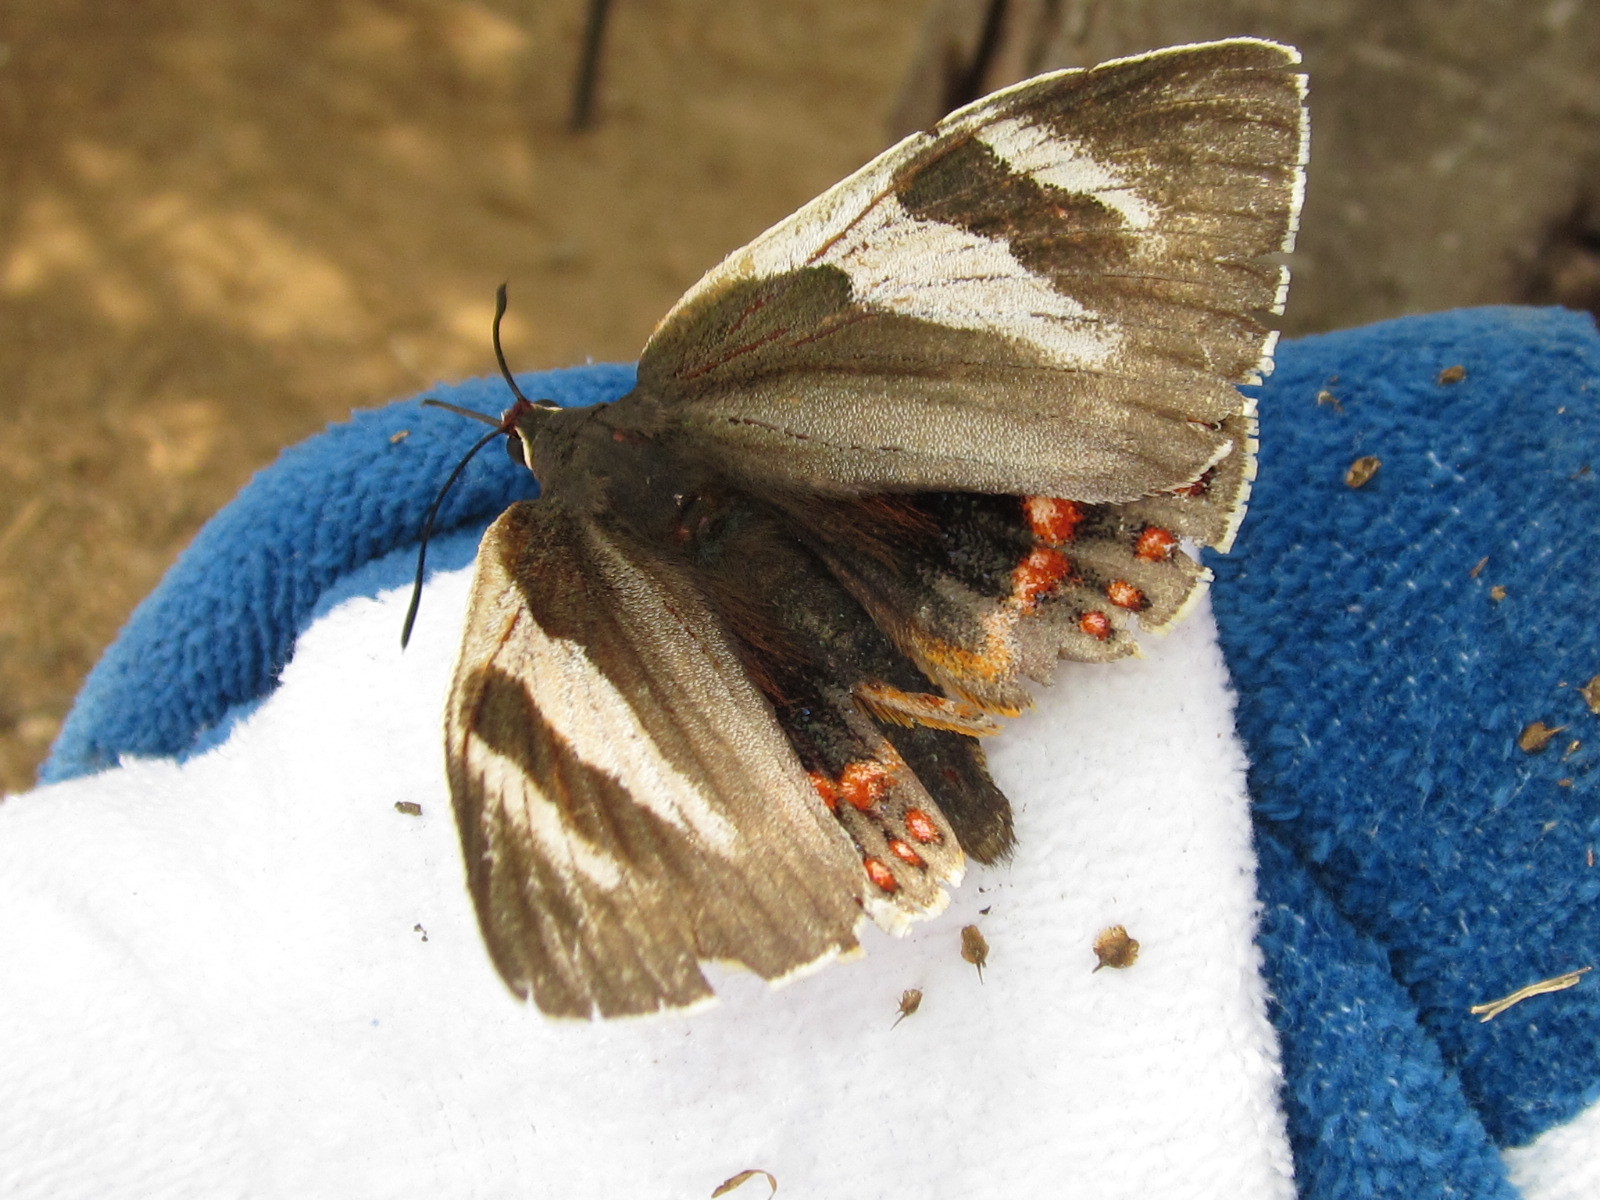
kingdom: Animalia
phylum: Arthropoda
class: Insecta
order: Lepidoptera
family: Nymphalidae
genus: Elina
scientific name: Elina eudesmia
